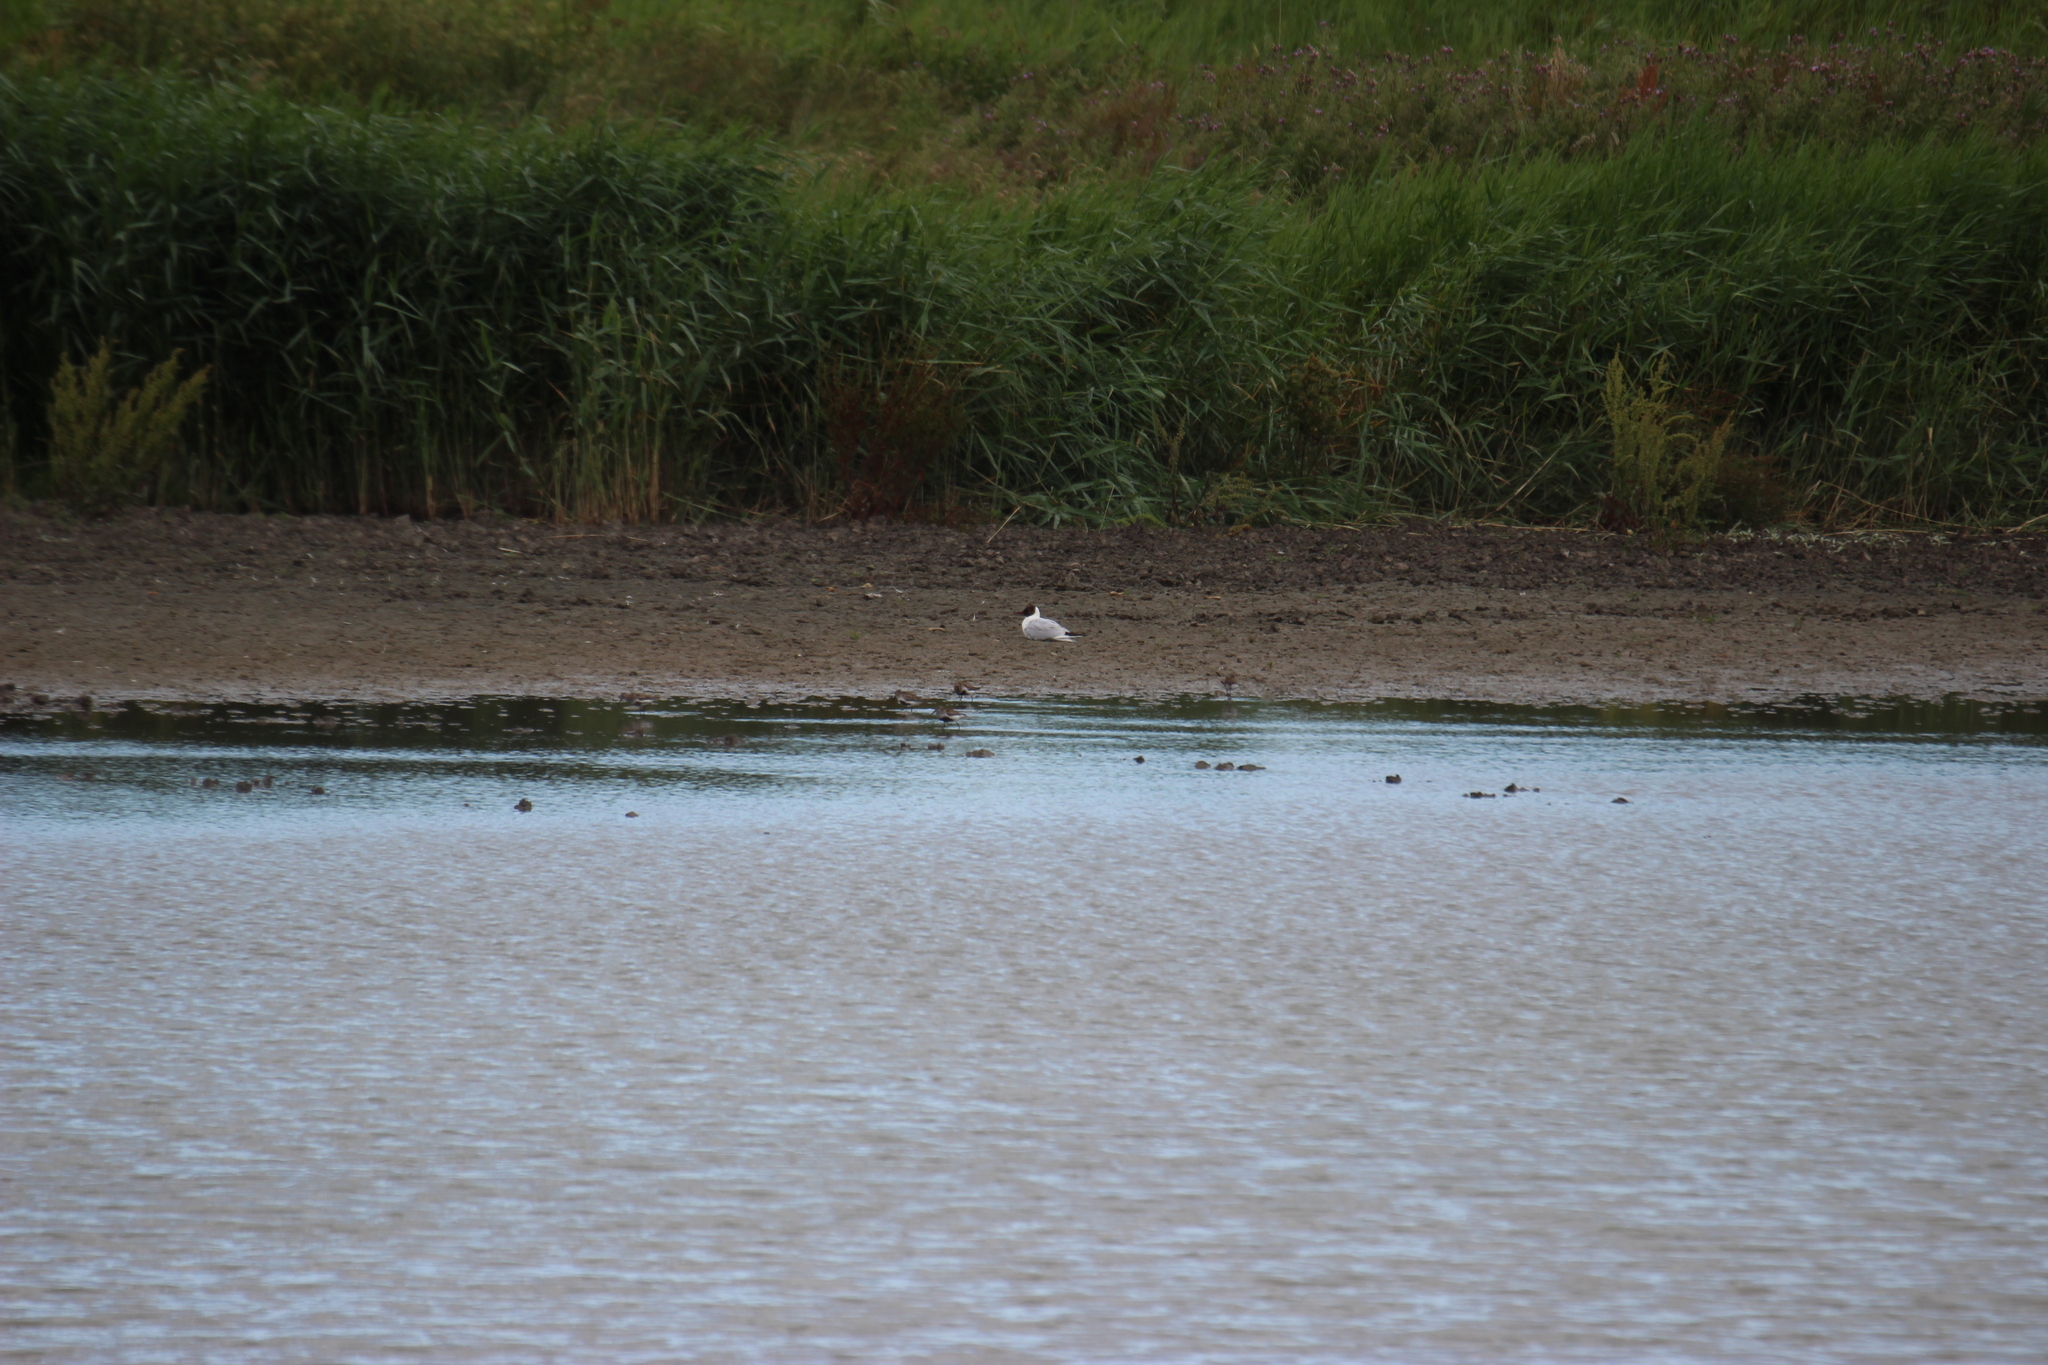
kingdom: Animalia
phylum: Chordata
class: Aves
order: Charadriiformes
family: Scolopacidae
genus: Calidris
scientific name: Calidris alpina
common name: Dunlin
